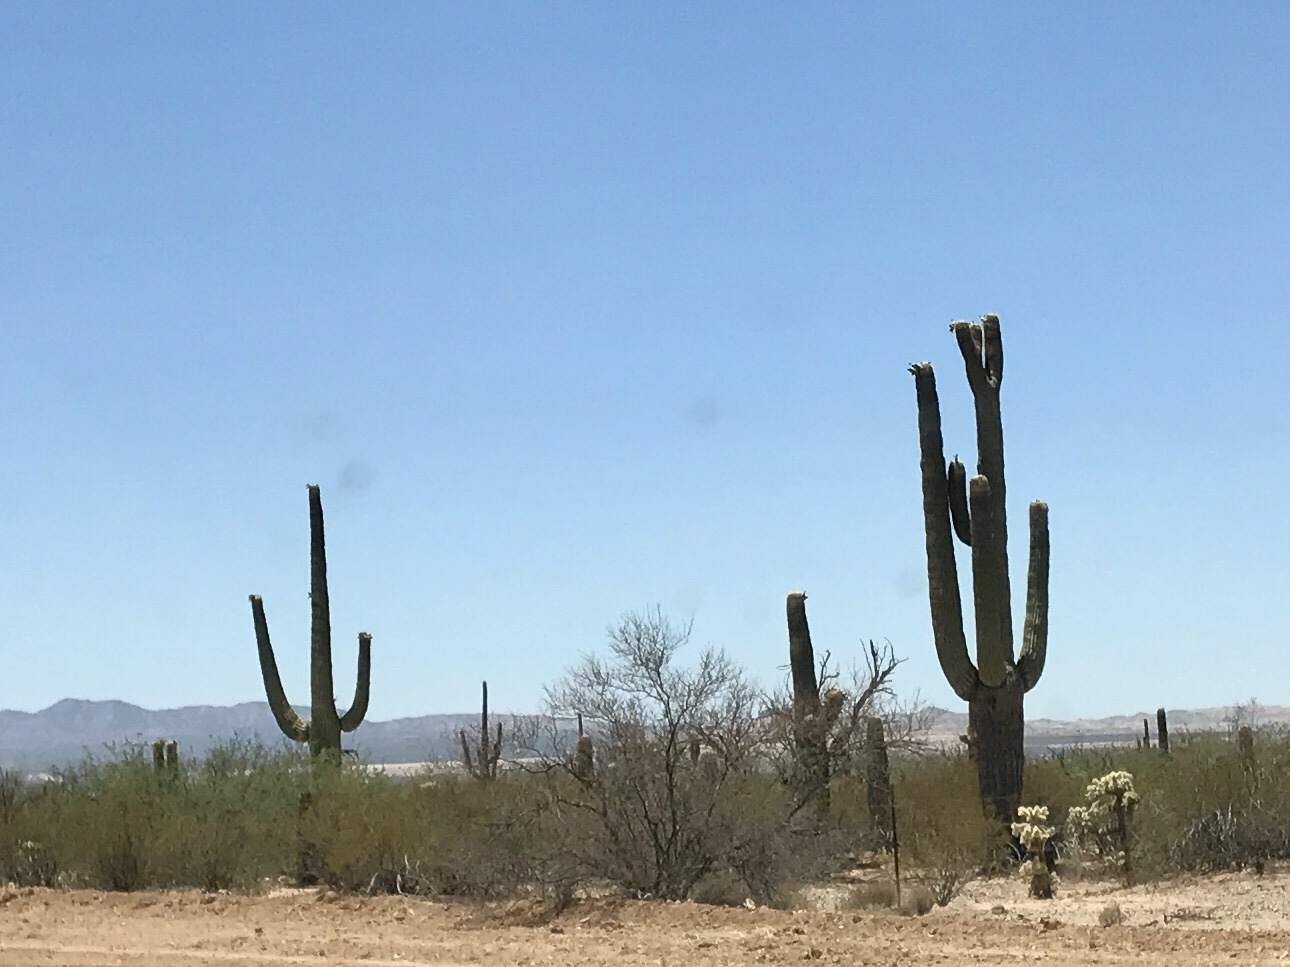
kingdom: Plantae
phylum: Tracheophyta
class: Magnoliopsida
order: Caryophyllales
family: Cactaceae
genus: Carnegiea
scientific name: Carnegiea gigantea
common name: Saguaro
